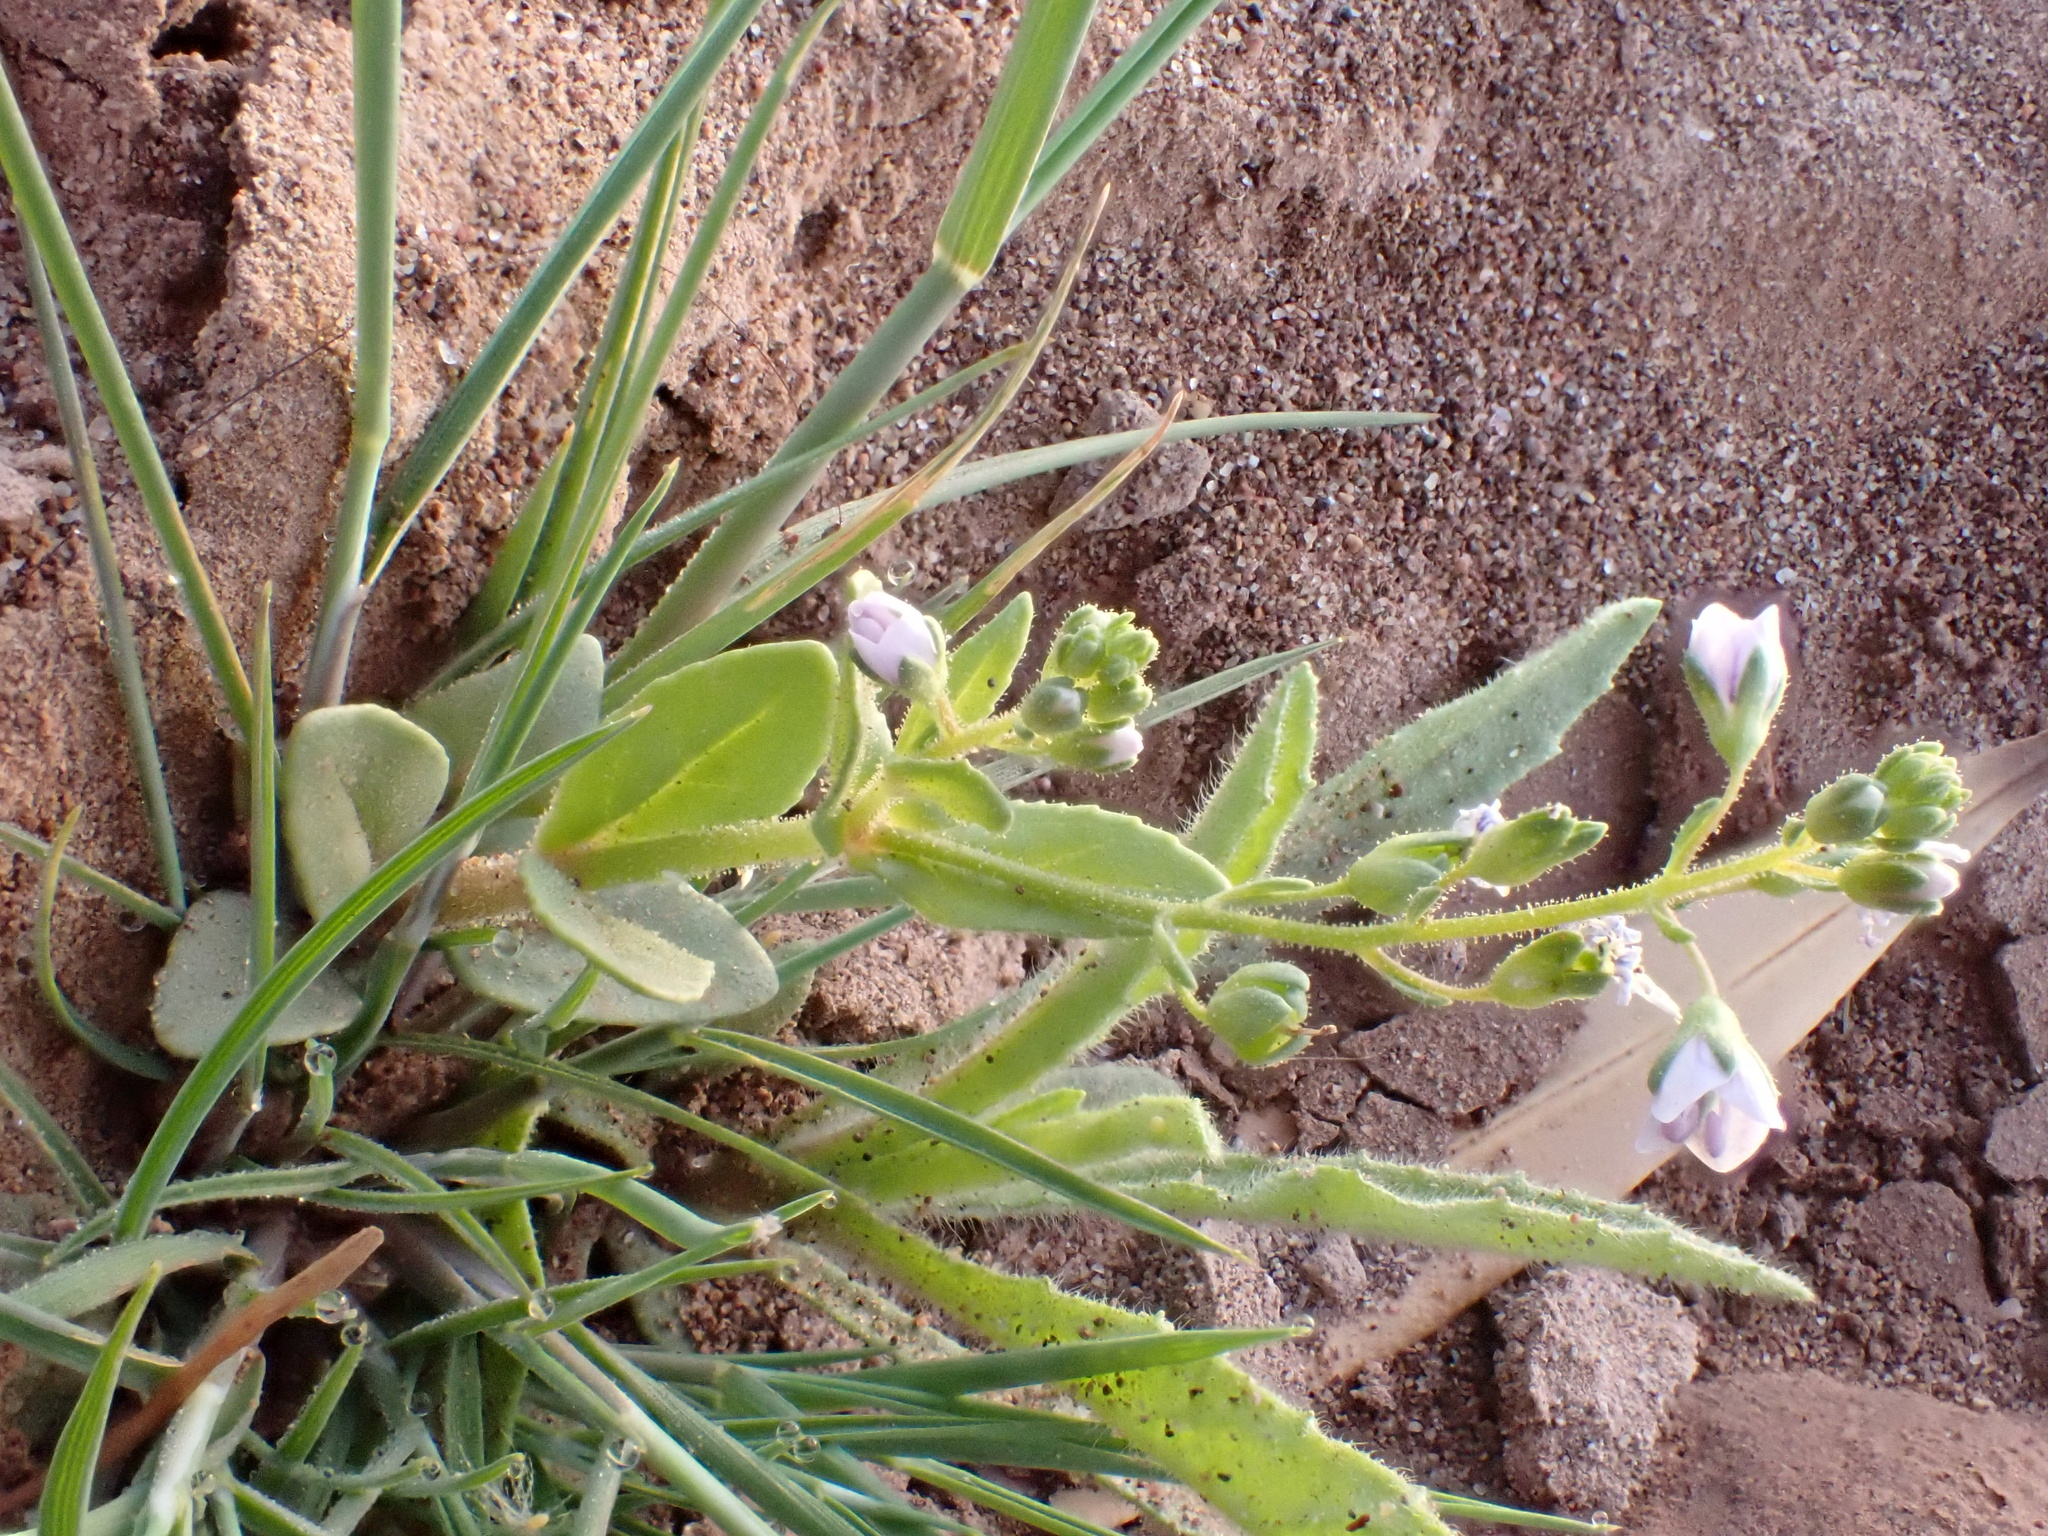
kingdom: Plantae
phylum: Tracheophyta
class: Magnoliopsida
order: Lamiales
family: Plantaginaceae
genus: Veronica
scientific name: Veronica anagalloides
